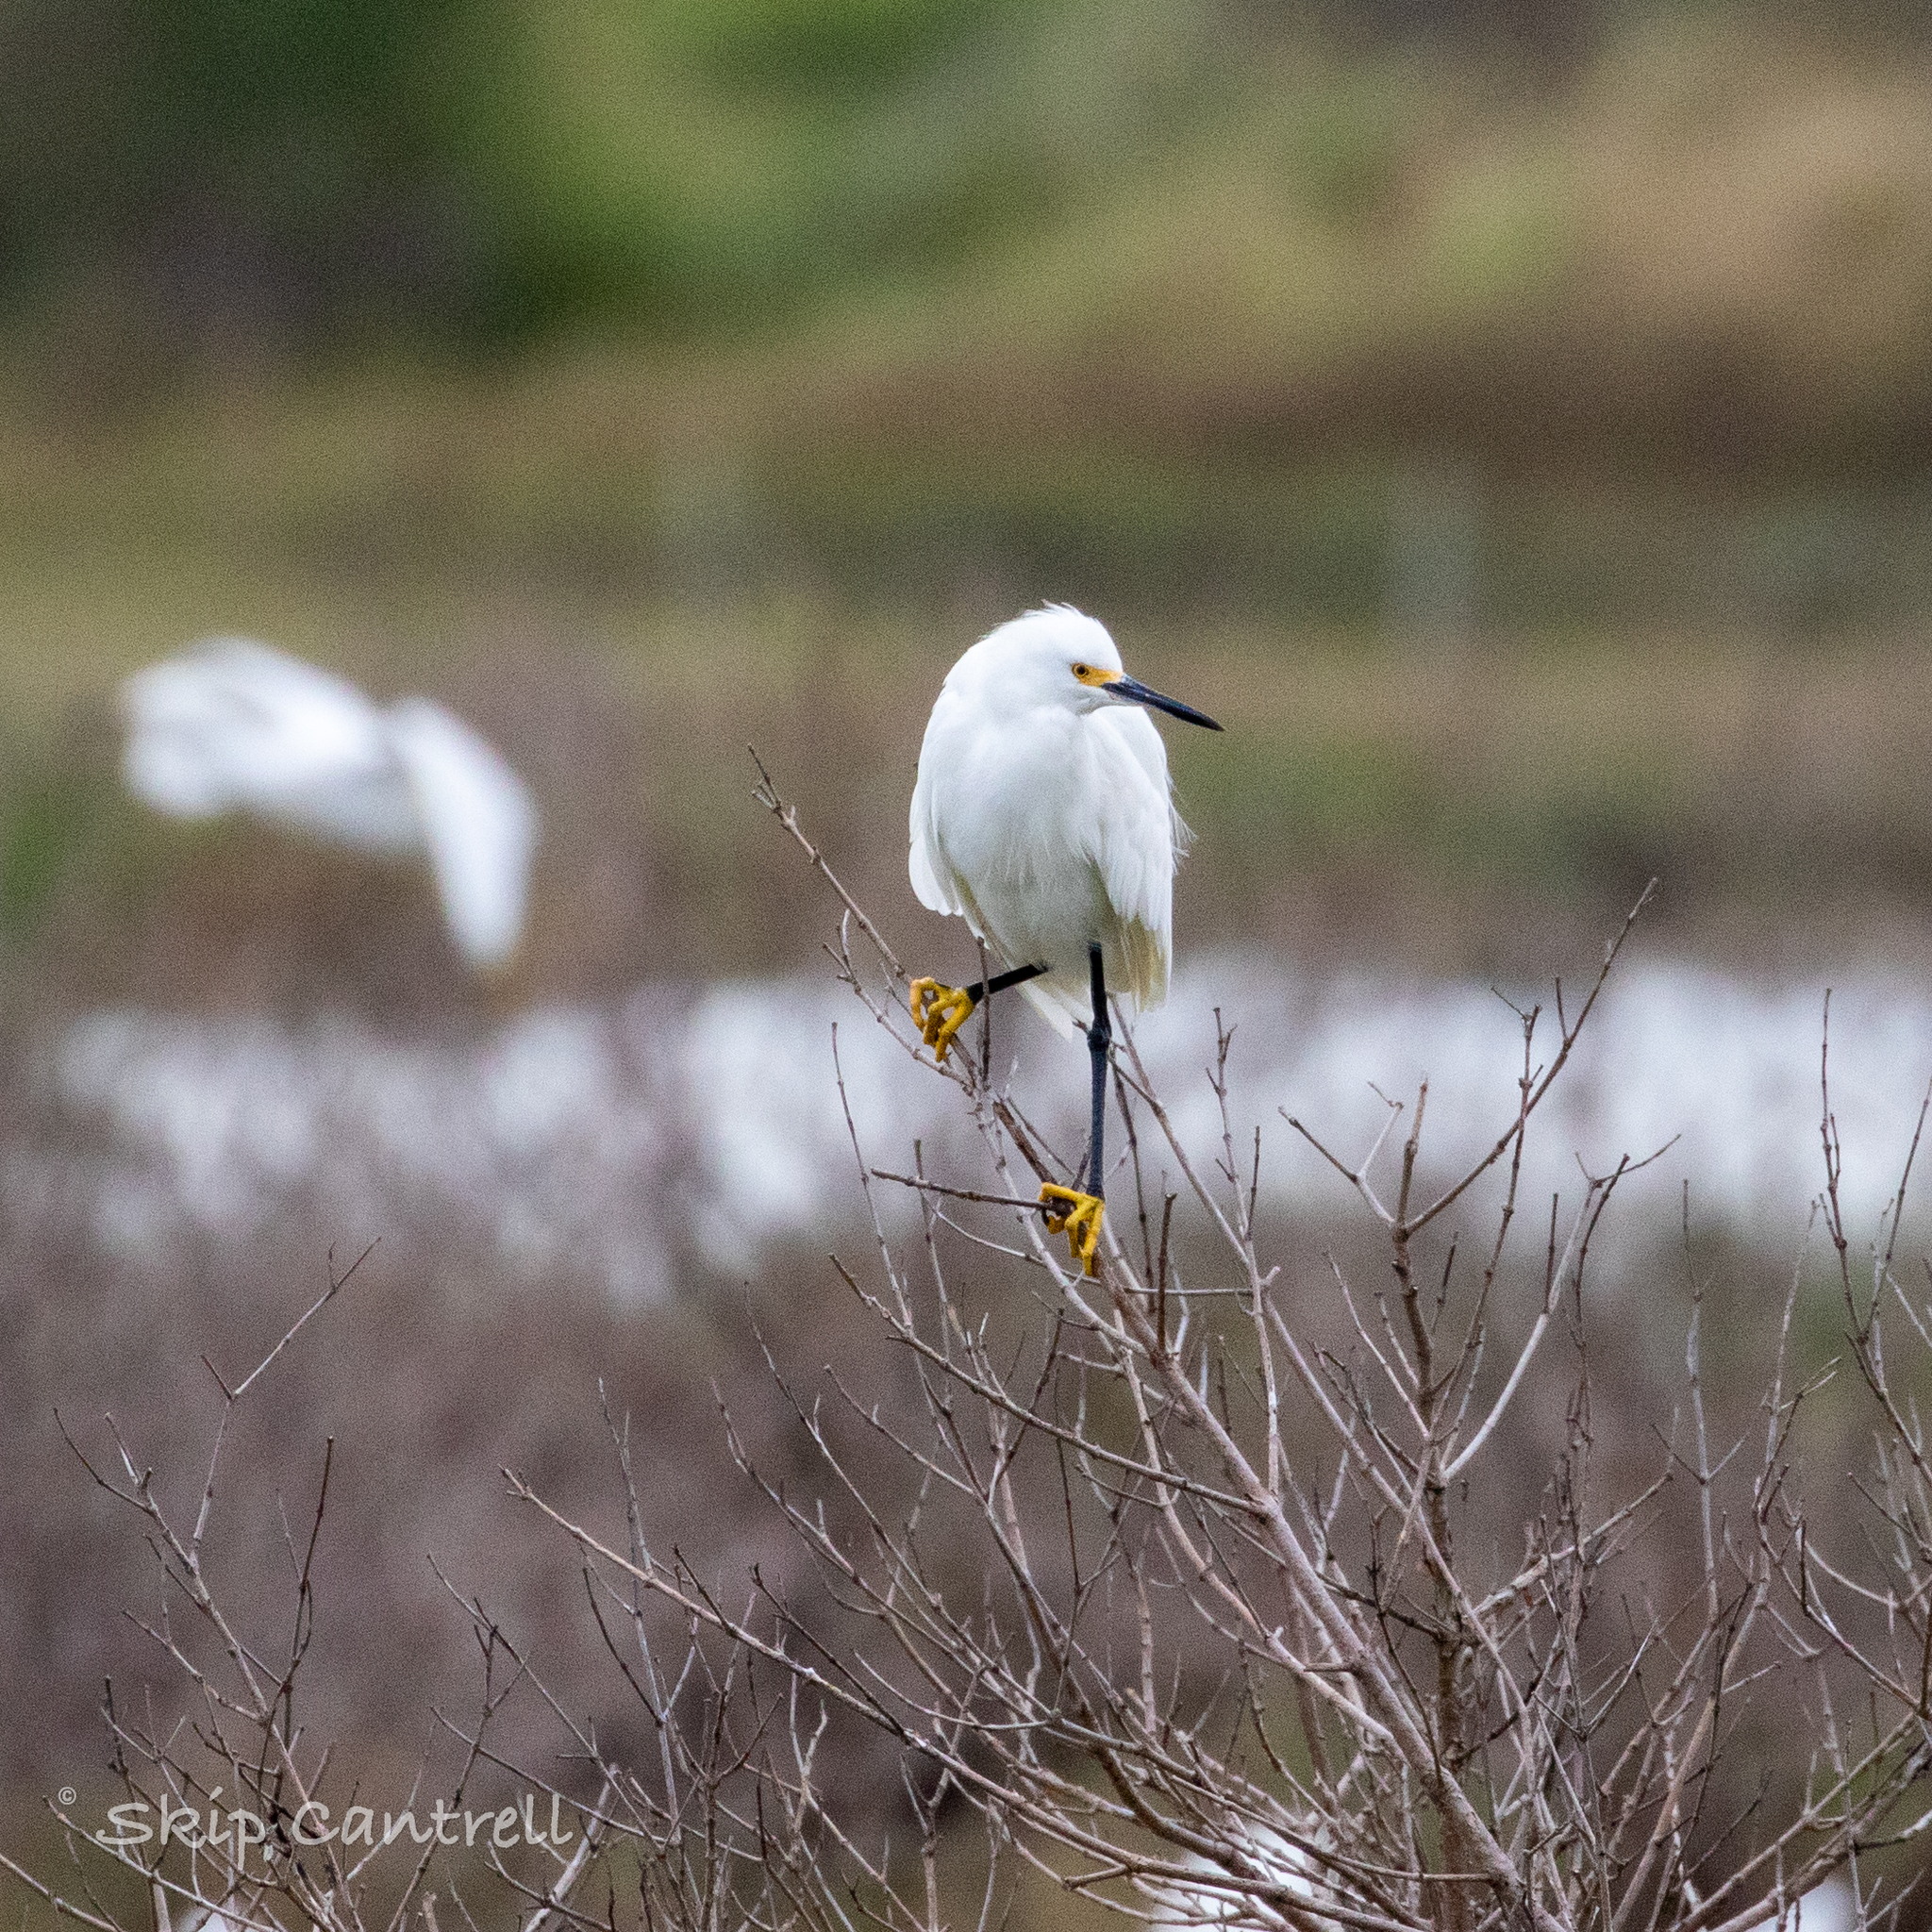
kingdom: Animalia
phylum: Chordata
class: Aves
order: Pelecaniformes
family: Ardeidae
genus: Egretta
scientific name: Egretta thula
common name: Snowy egret
